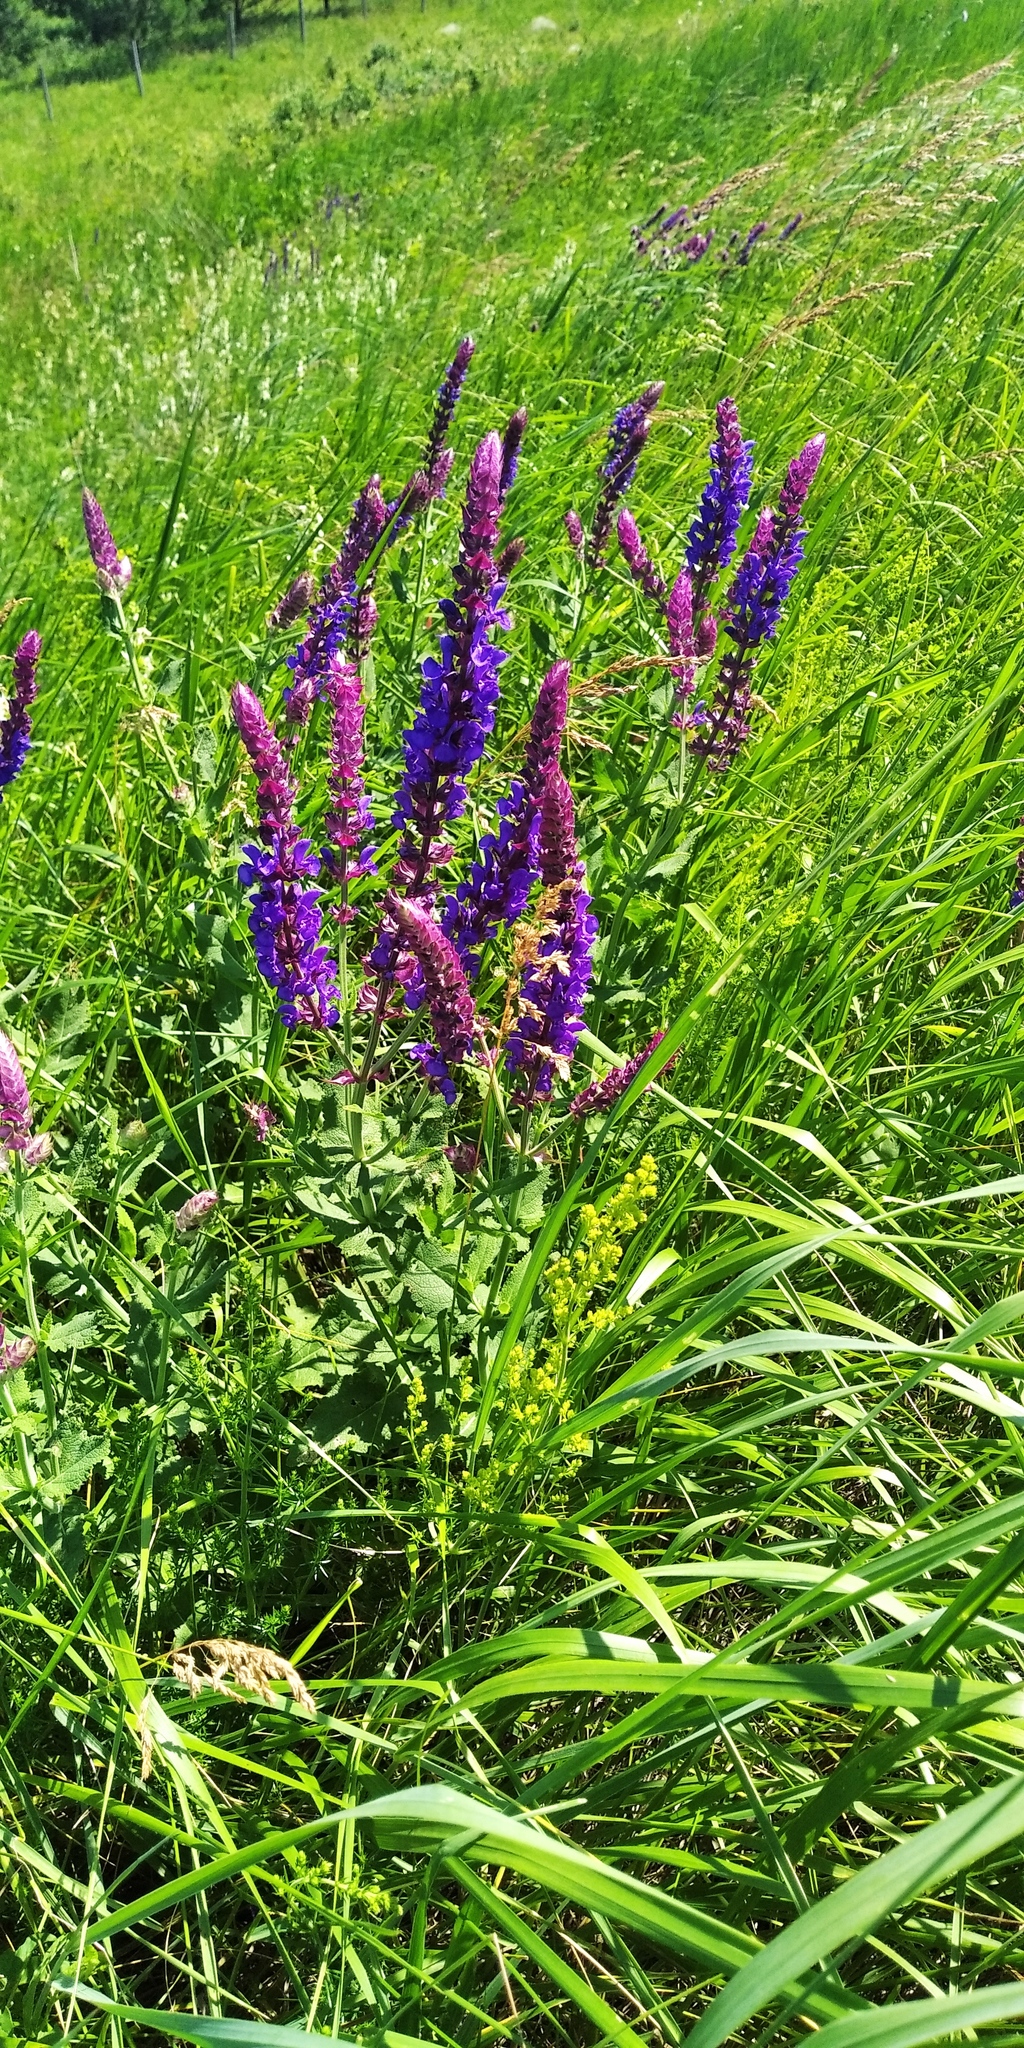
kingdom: Plantae
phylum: Tracheophyta
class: Magnoliopsida
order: Lamiales
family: Lamiaceae
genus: Salvia
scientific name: Salvia nemorosa
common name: Balkan clary
